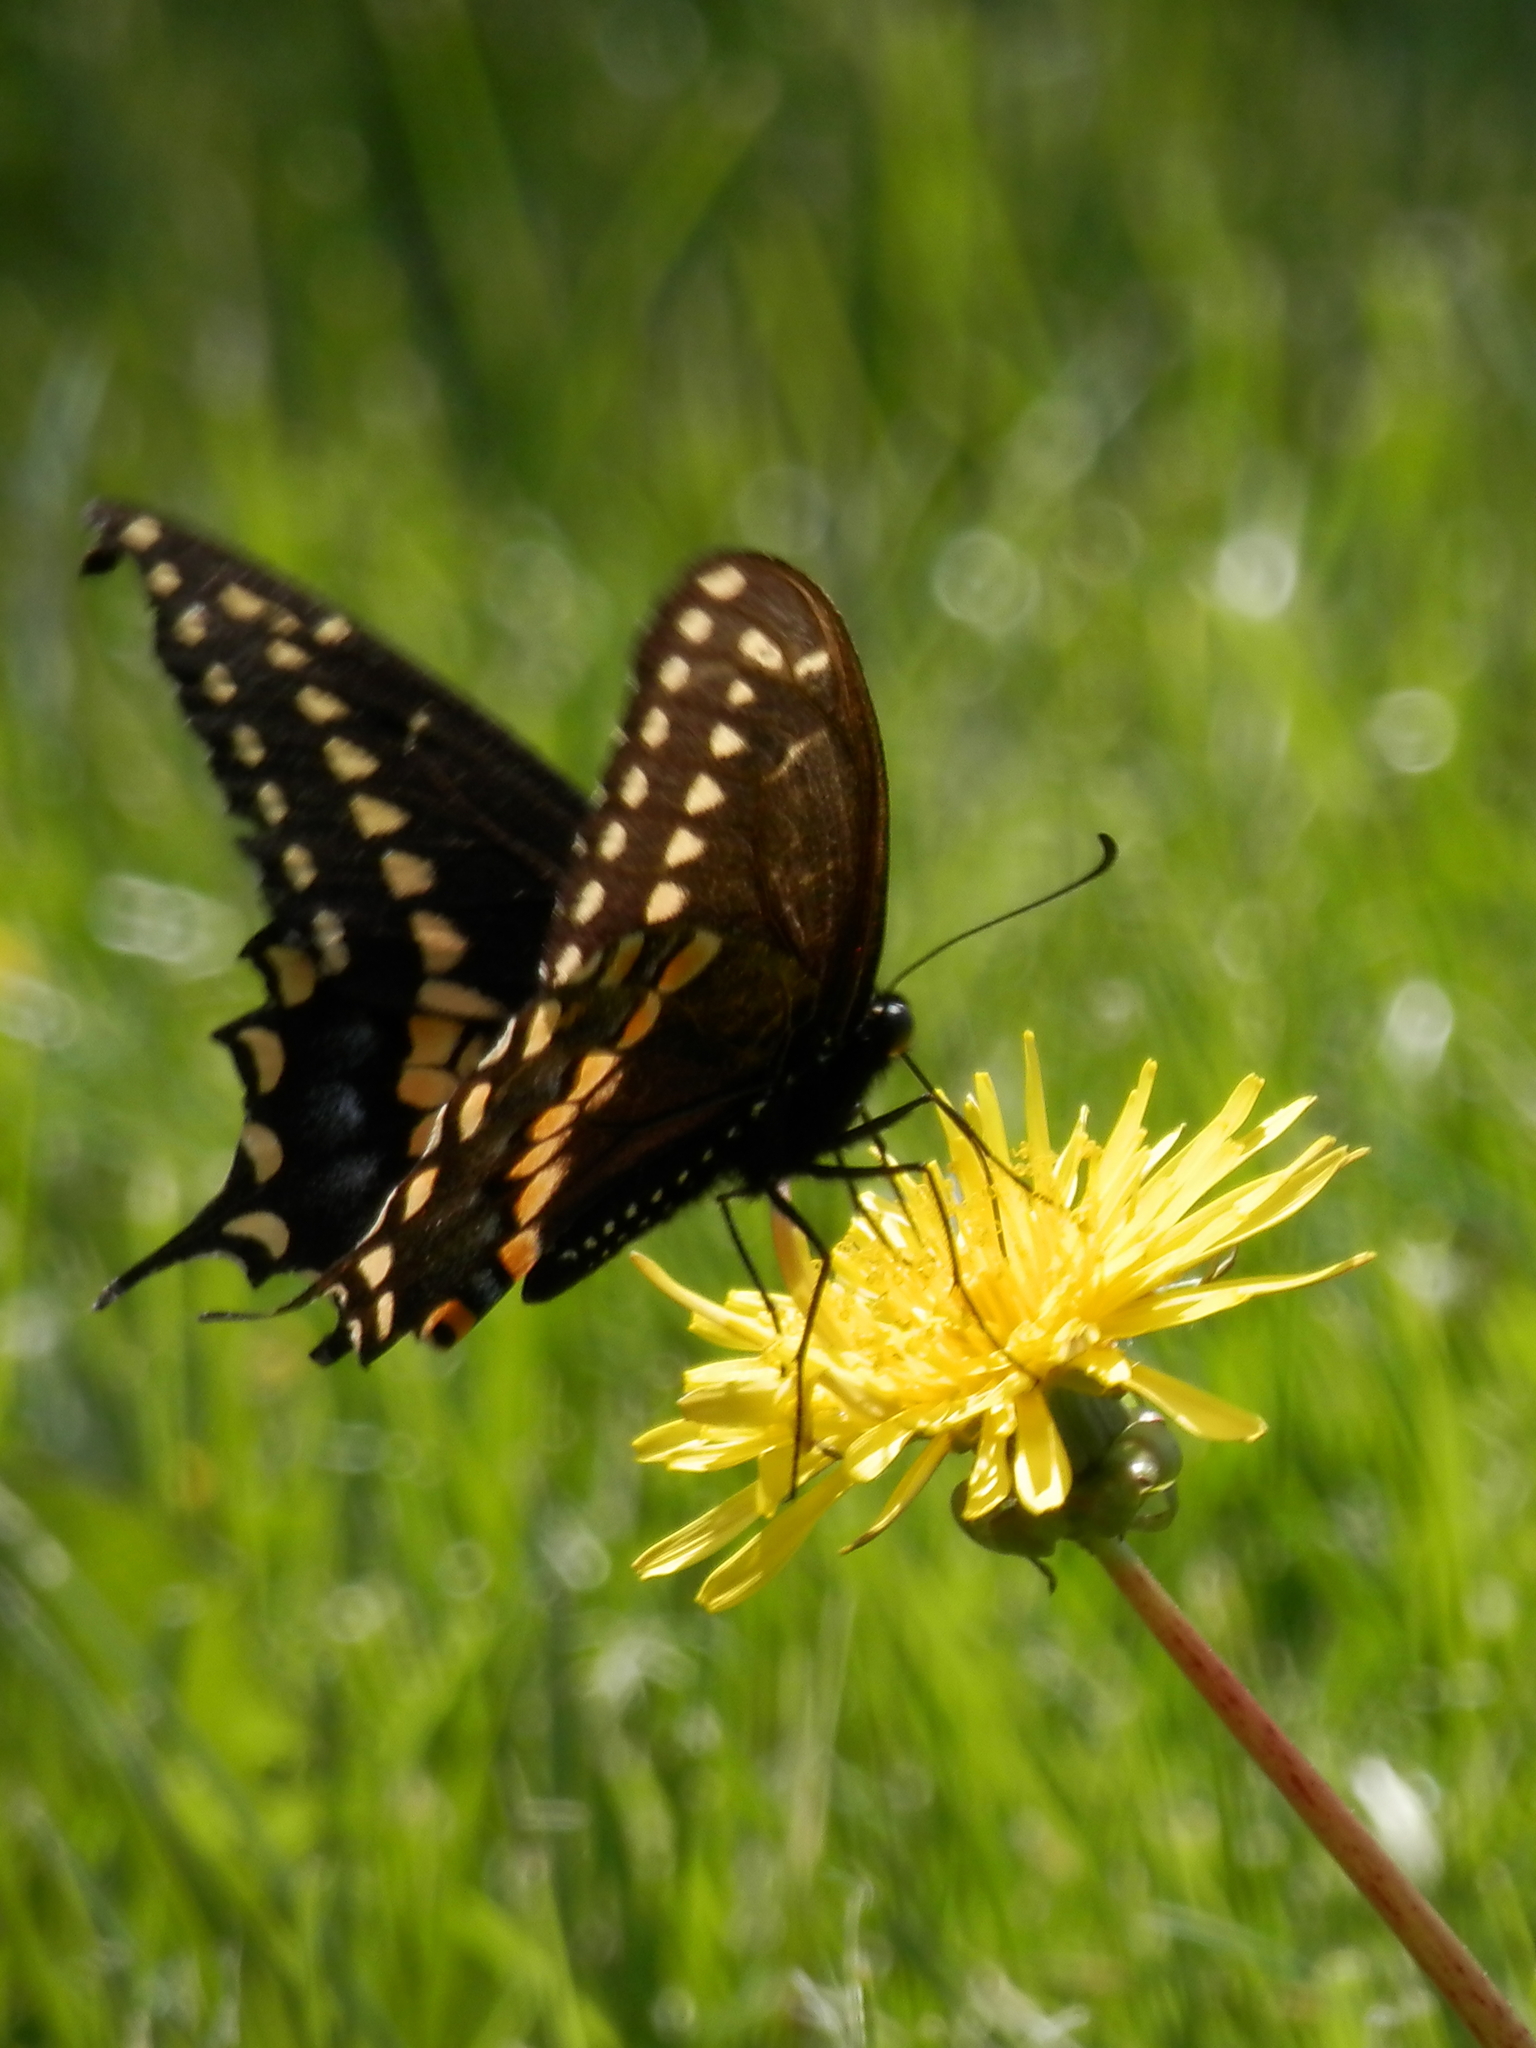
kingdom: Animalia
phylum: Arthropoda
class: Insecta
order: Lepidoptera
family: Papilionidae
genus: Papilio
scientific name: Papilio polyxenes
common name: Black swallowtail
